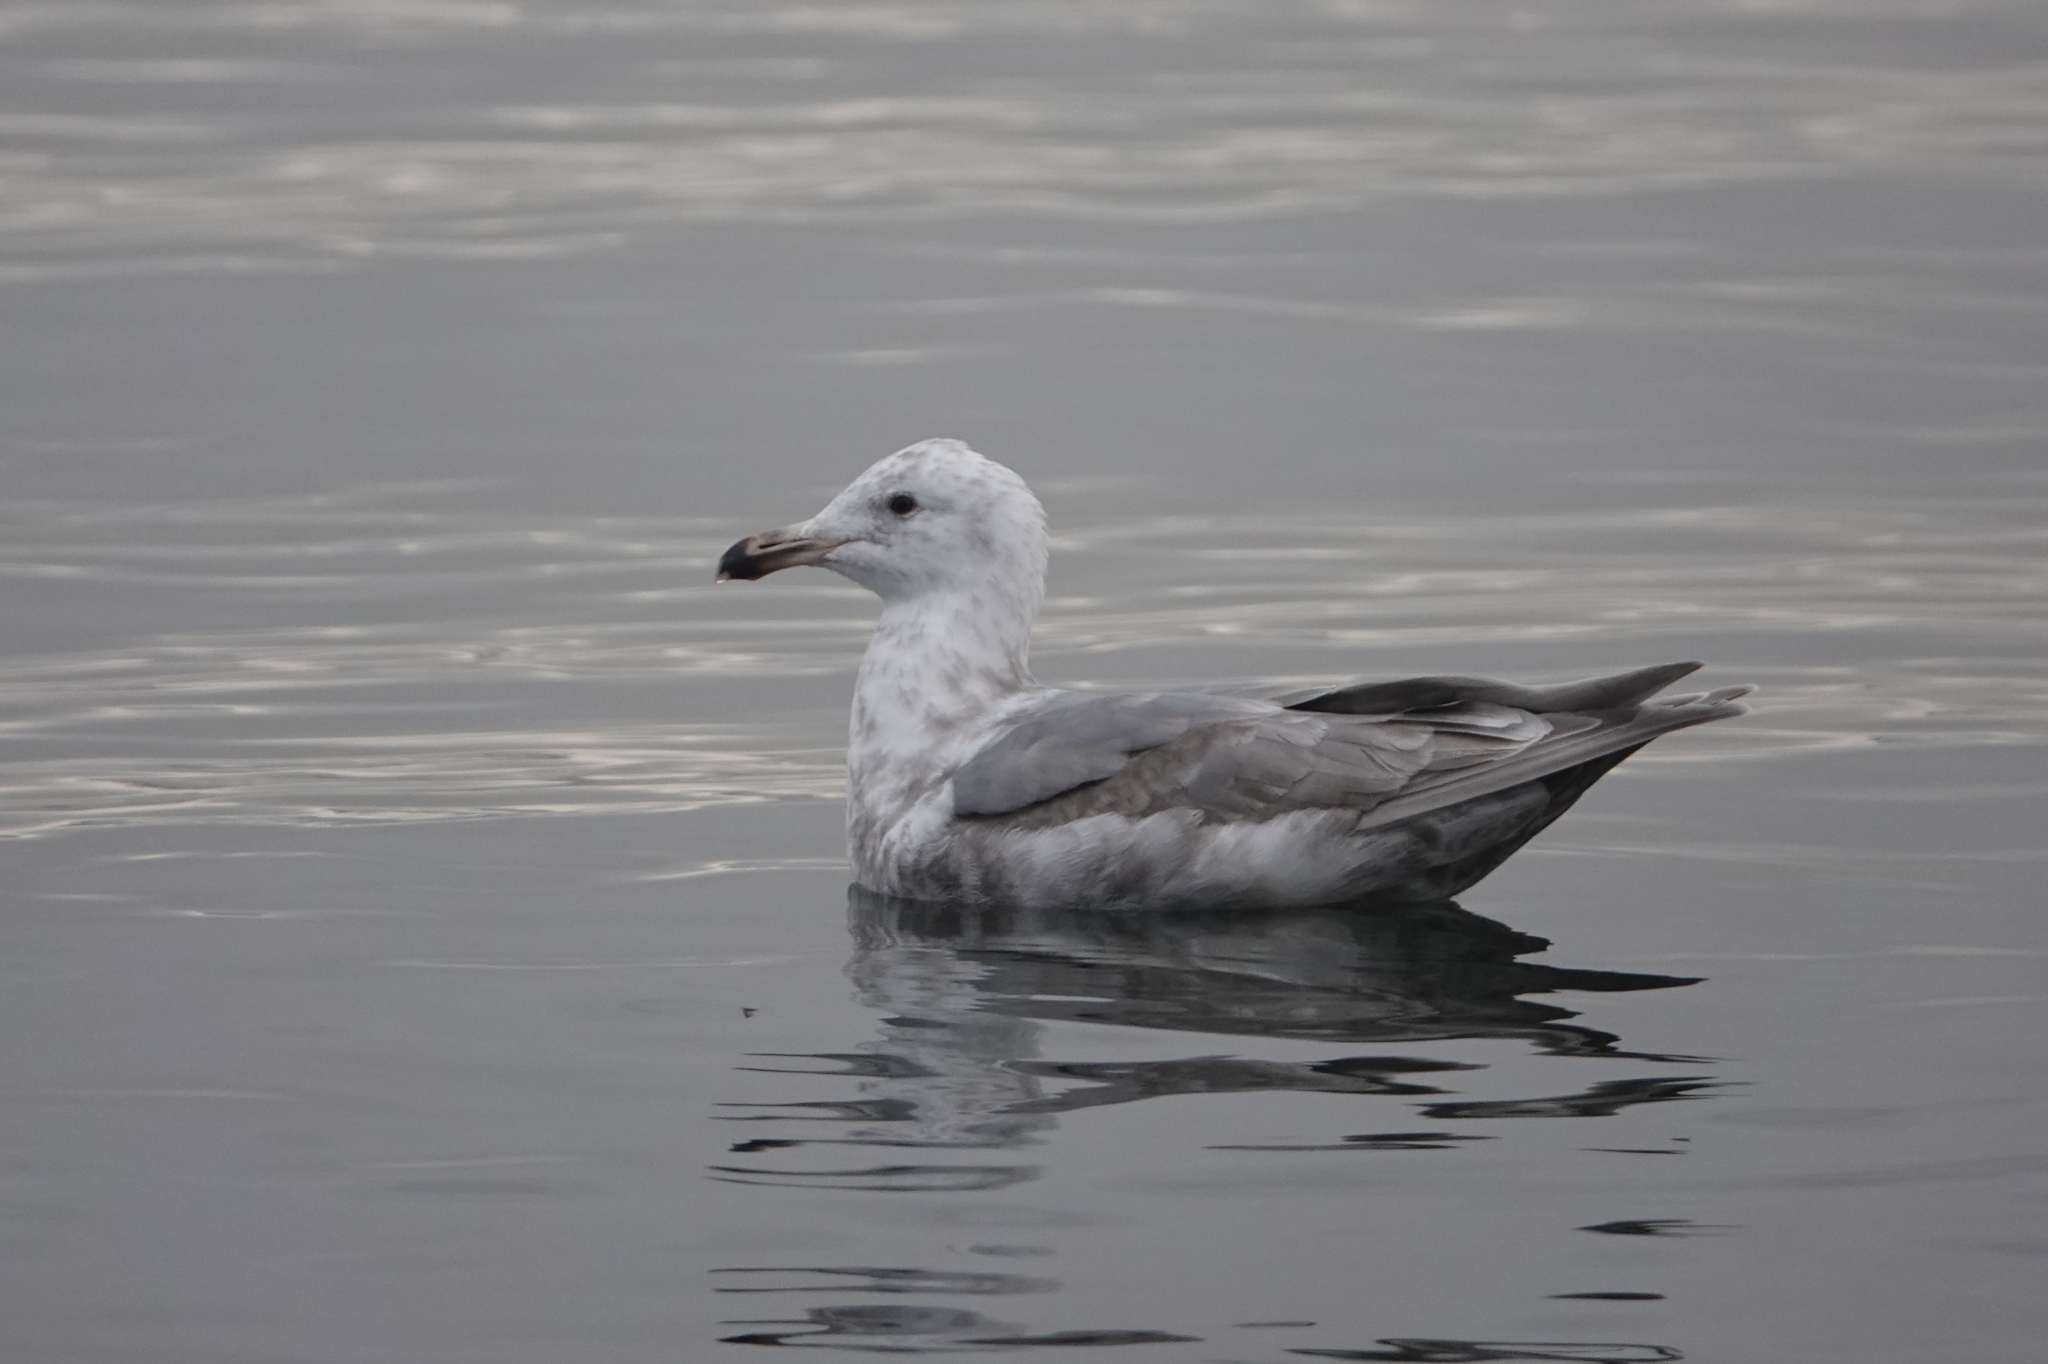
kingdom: Animalia
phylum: Chordata
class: Aves
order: Charadriiformes
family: Laridae
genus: Larus
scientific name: Larus glaucescens
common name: Glaucous-winged gull
